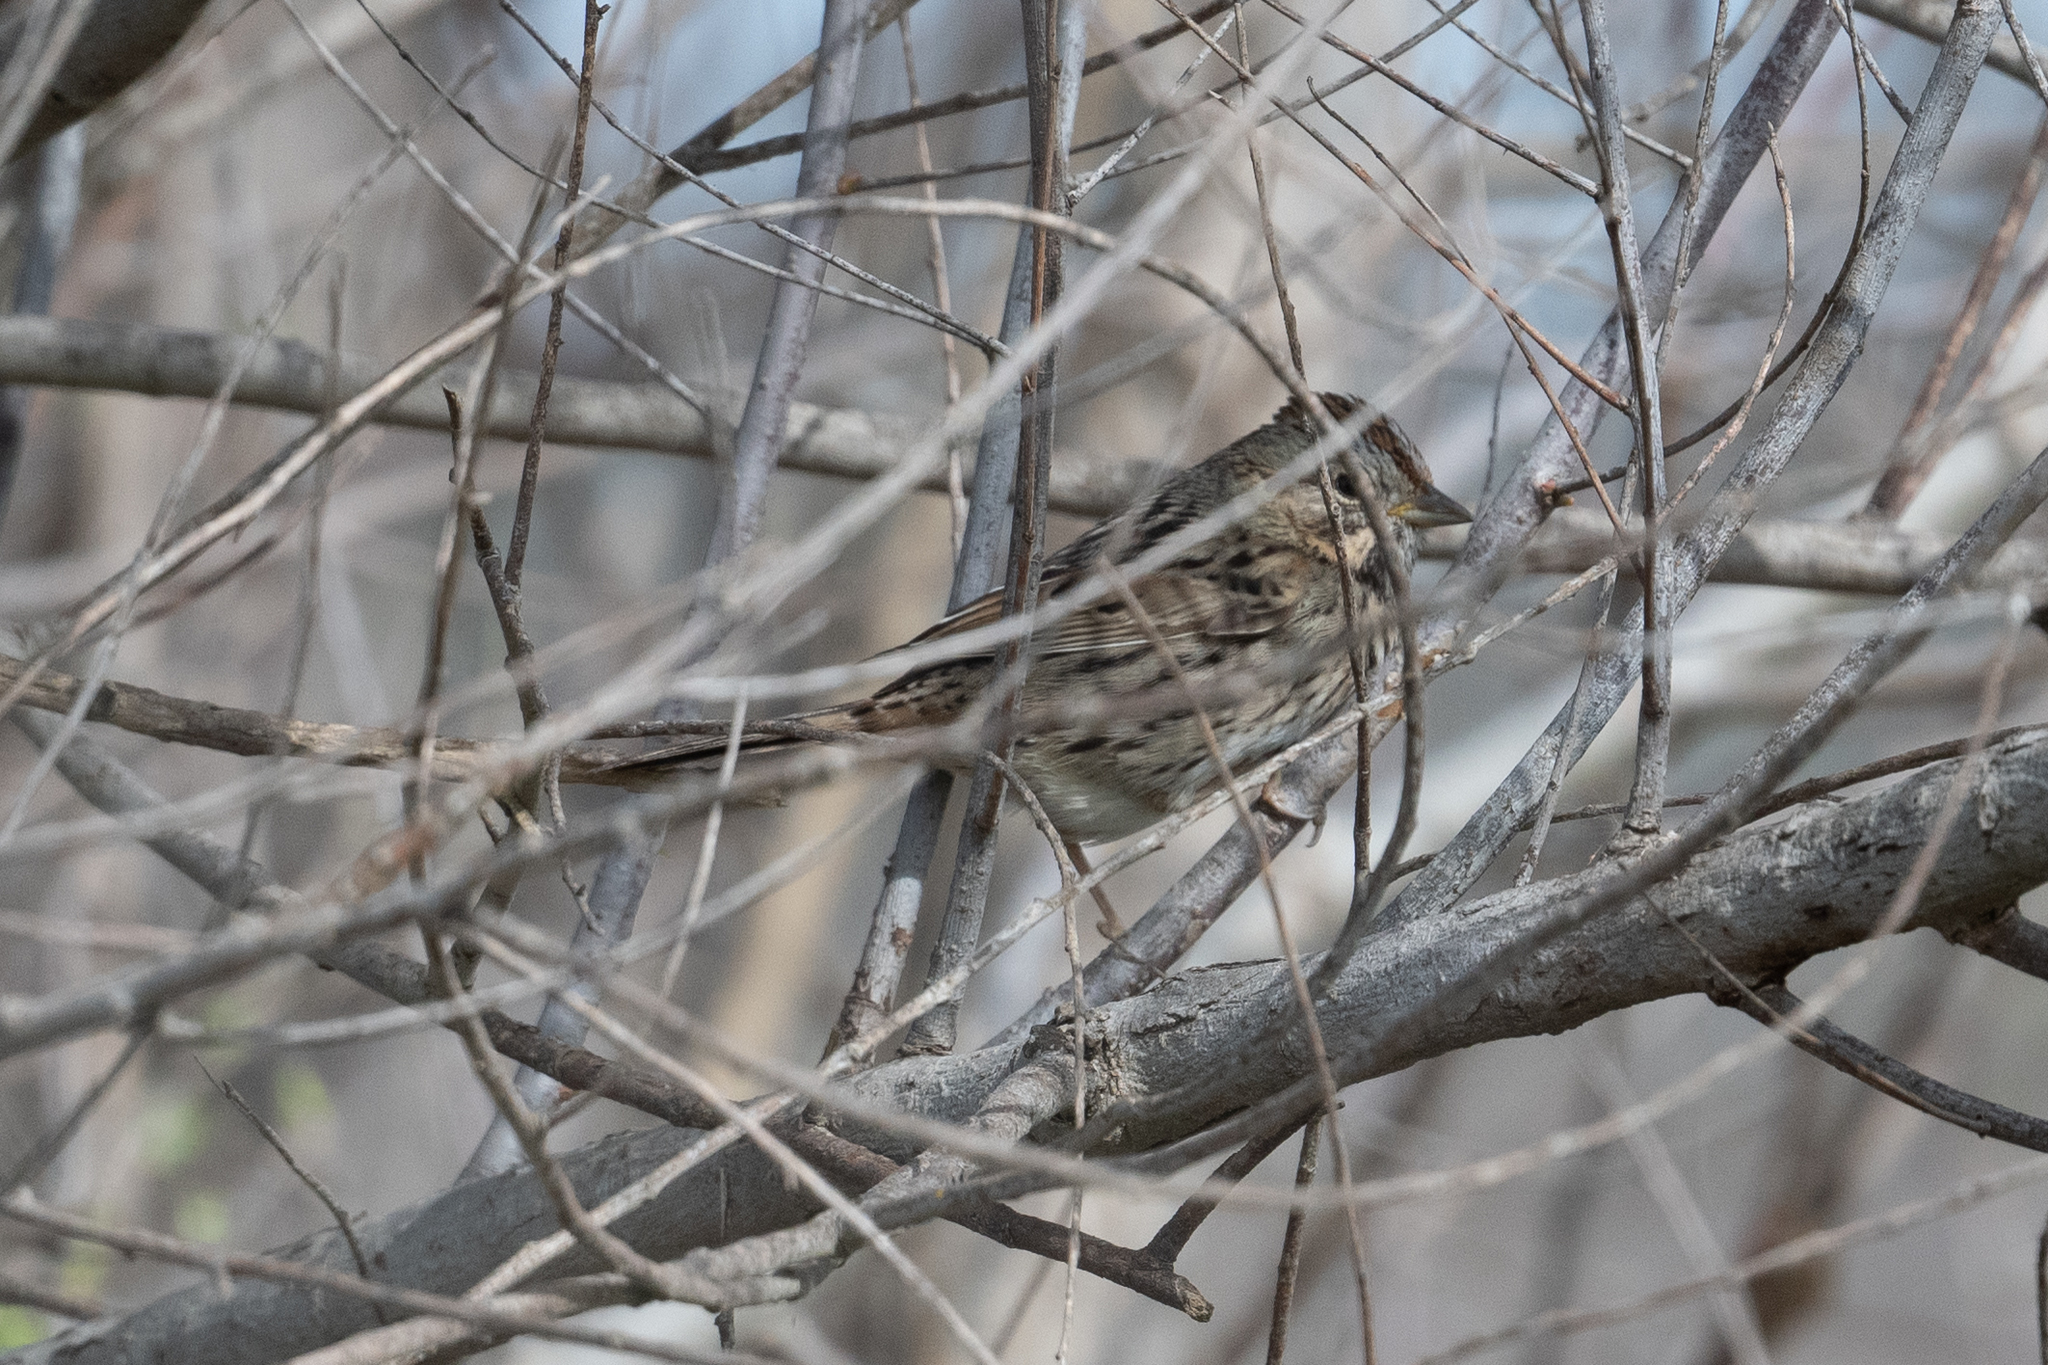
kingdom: Animalia
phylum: Chordata
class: Aves
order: Passeriformes
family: Passerellidae
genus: Melospiza
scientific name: Melospiza lincolnii
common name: Lincoln's sparrow
